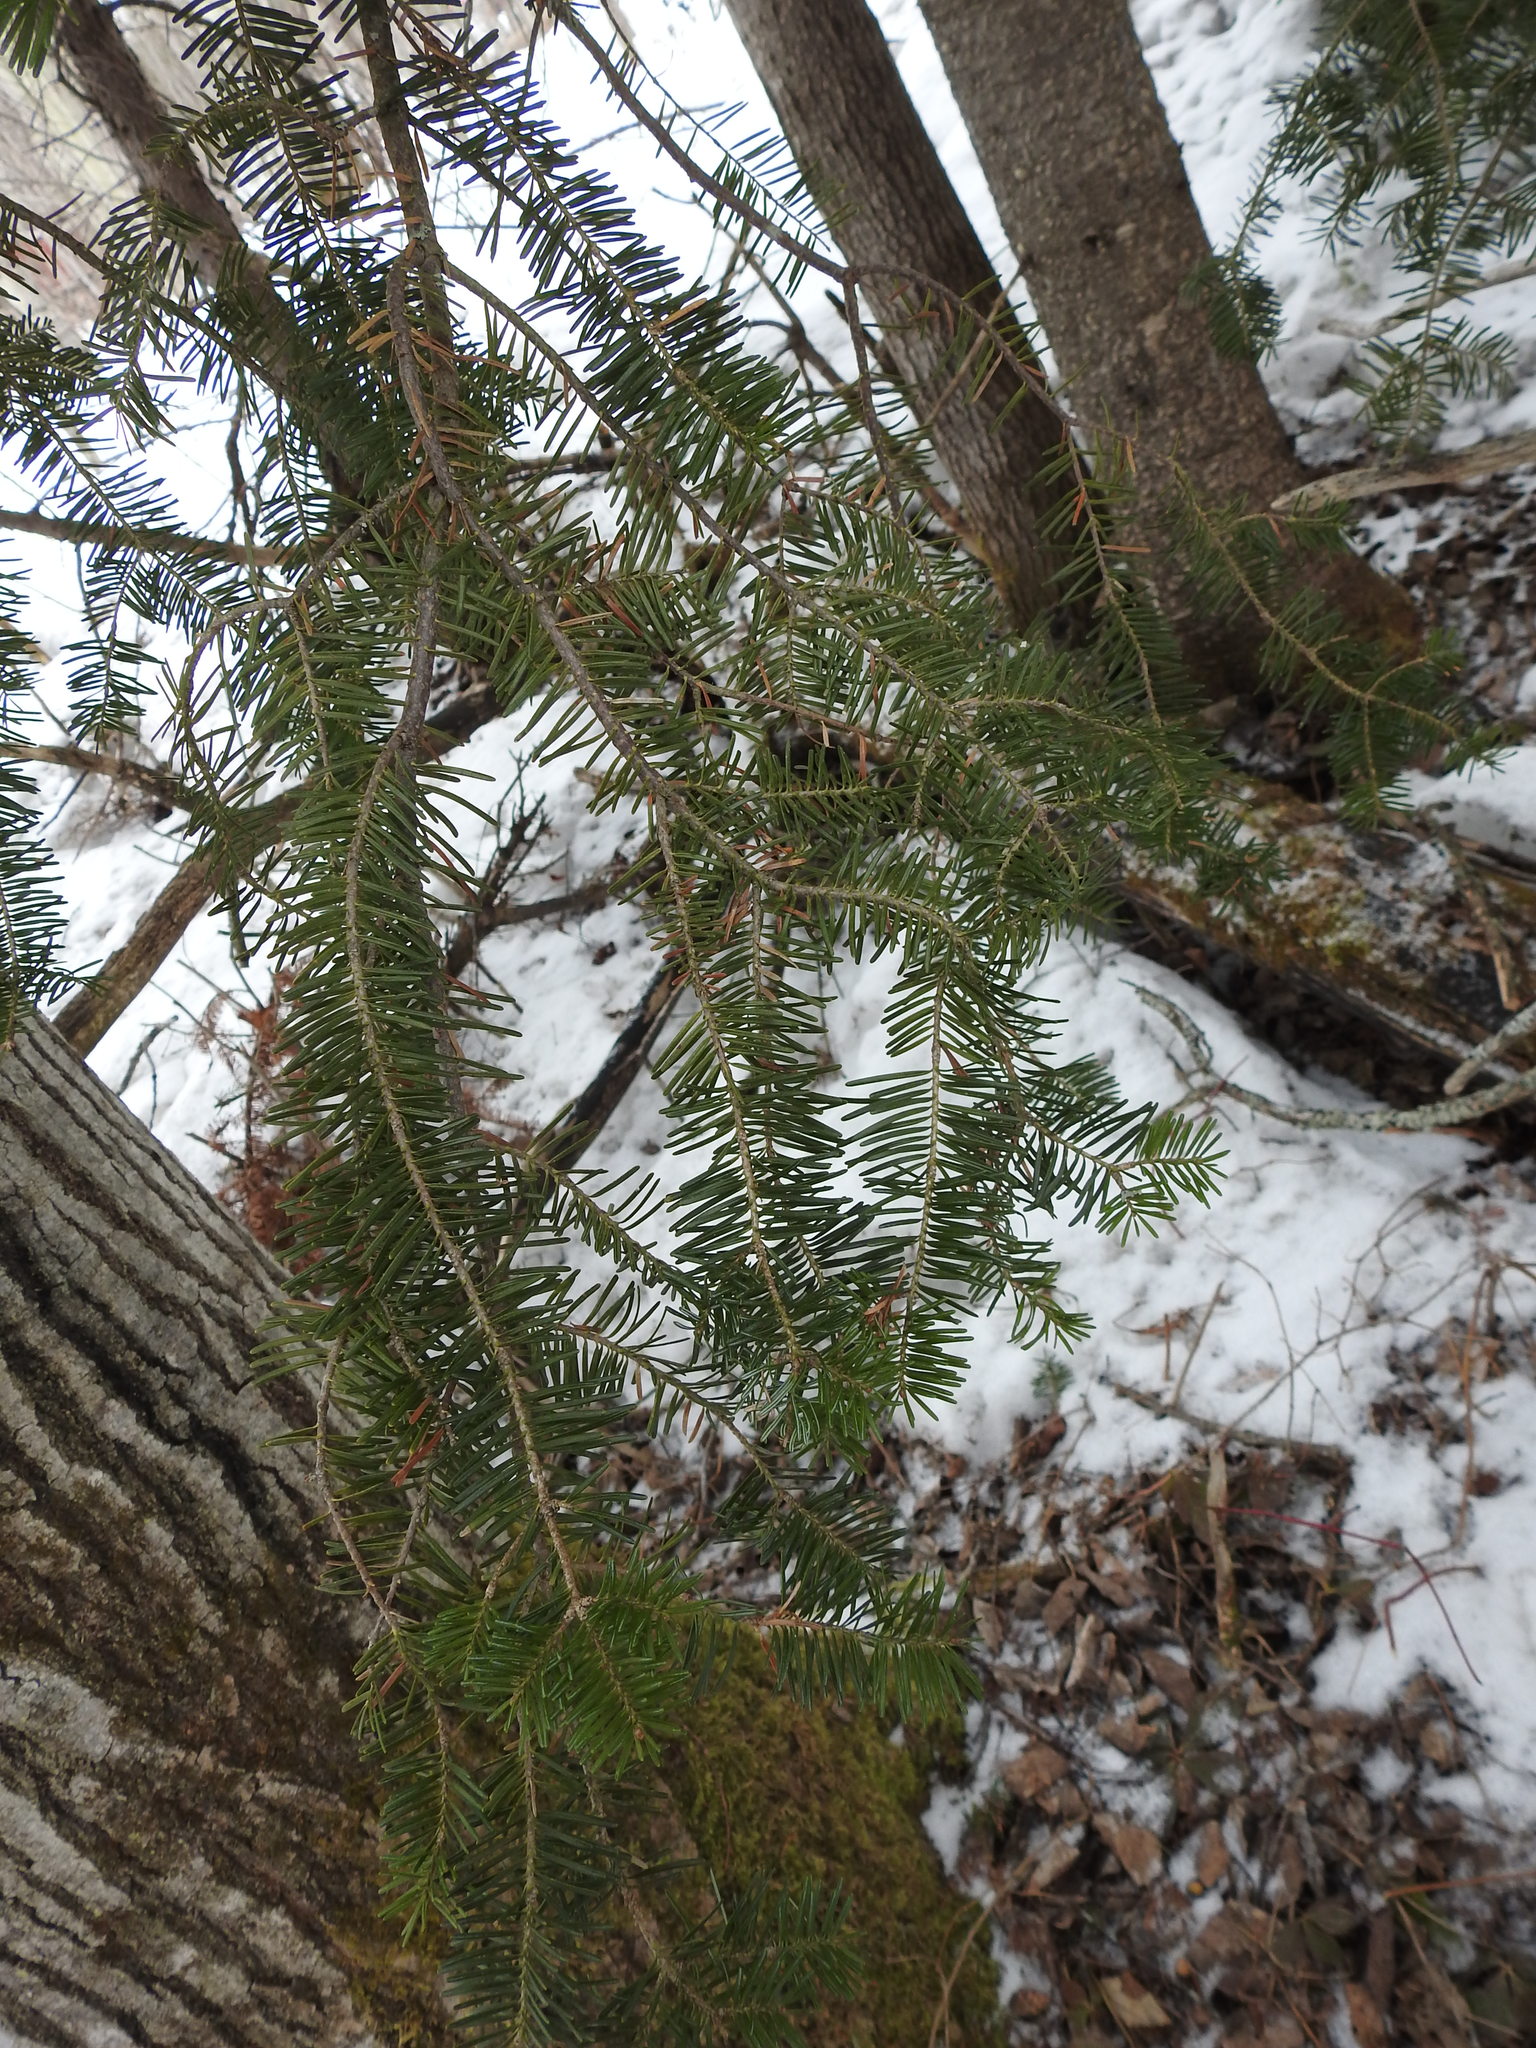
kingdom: Plantae
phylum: Tracheophyta
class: Pinopsida
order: Pinales
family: Pinaceae
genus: Abies
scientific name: Abies balsamea
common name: Balsam fir
